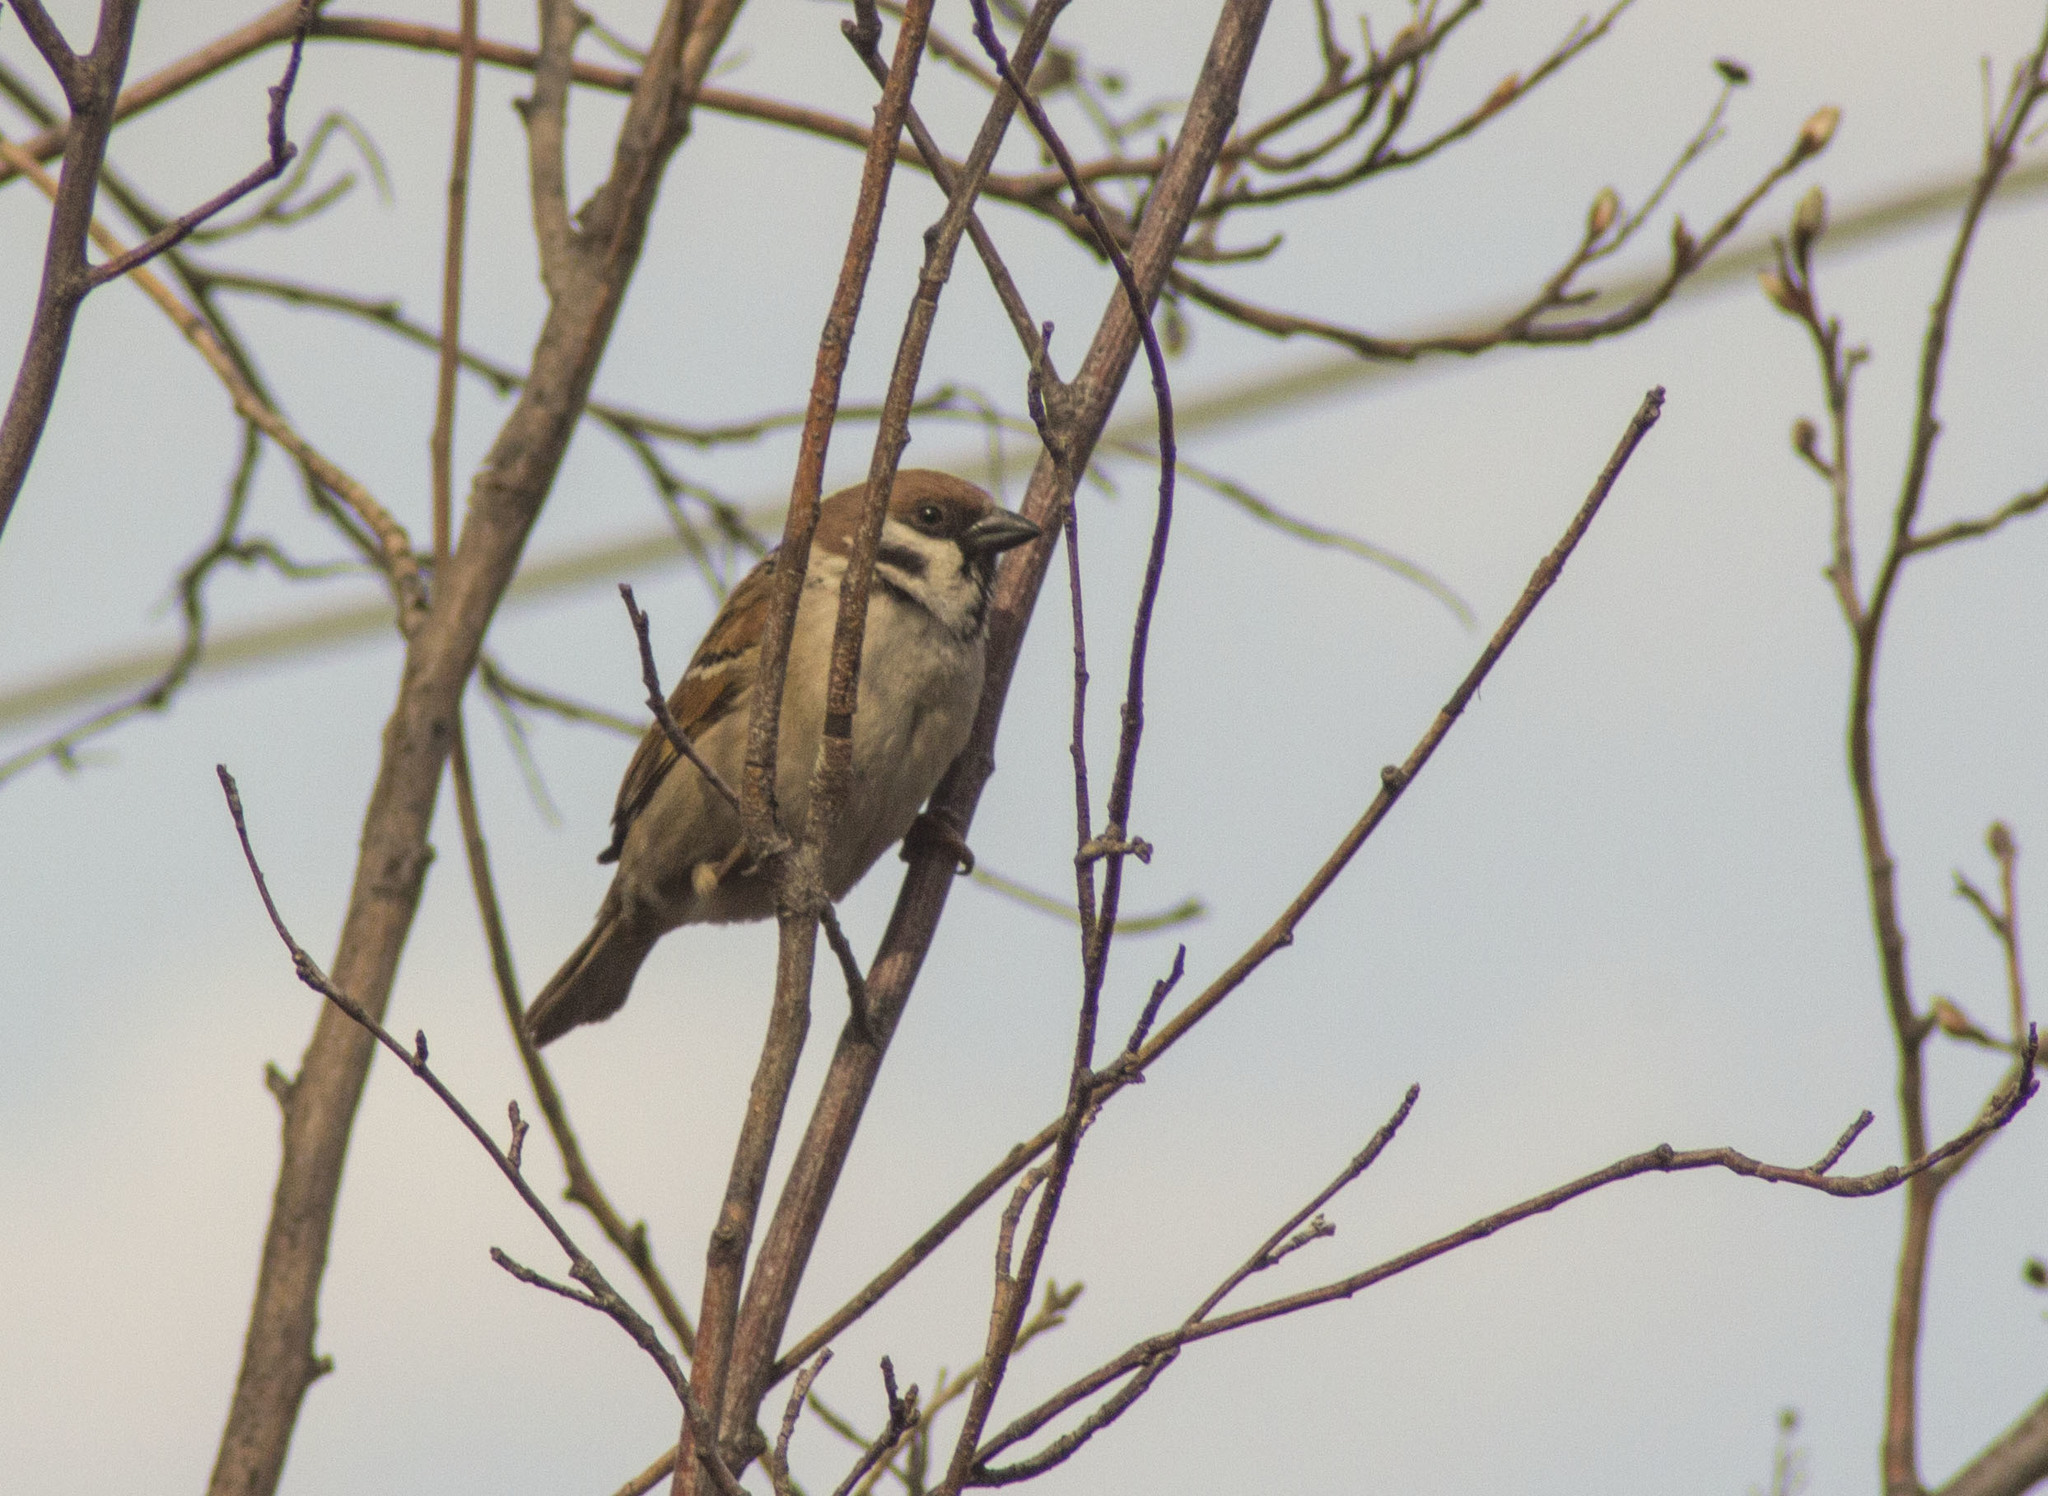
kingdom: Animalia
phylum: Chordata
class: Aves
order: Passeriformes
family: Passeridae
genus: Passer
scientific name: Passer montanus
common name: Eurasian tree sparrow
